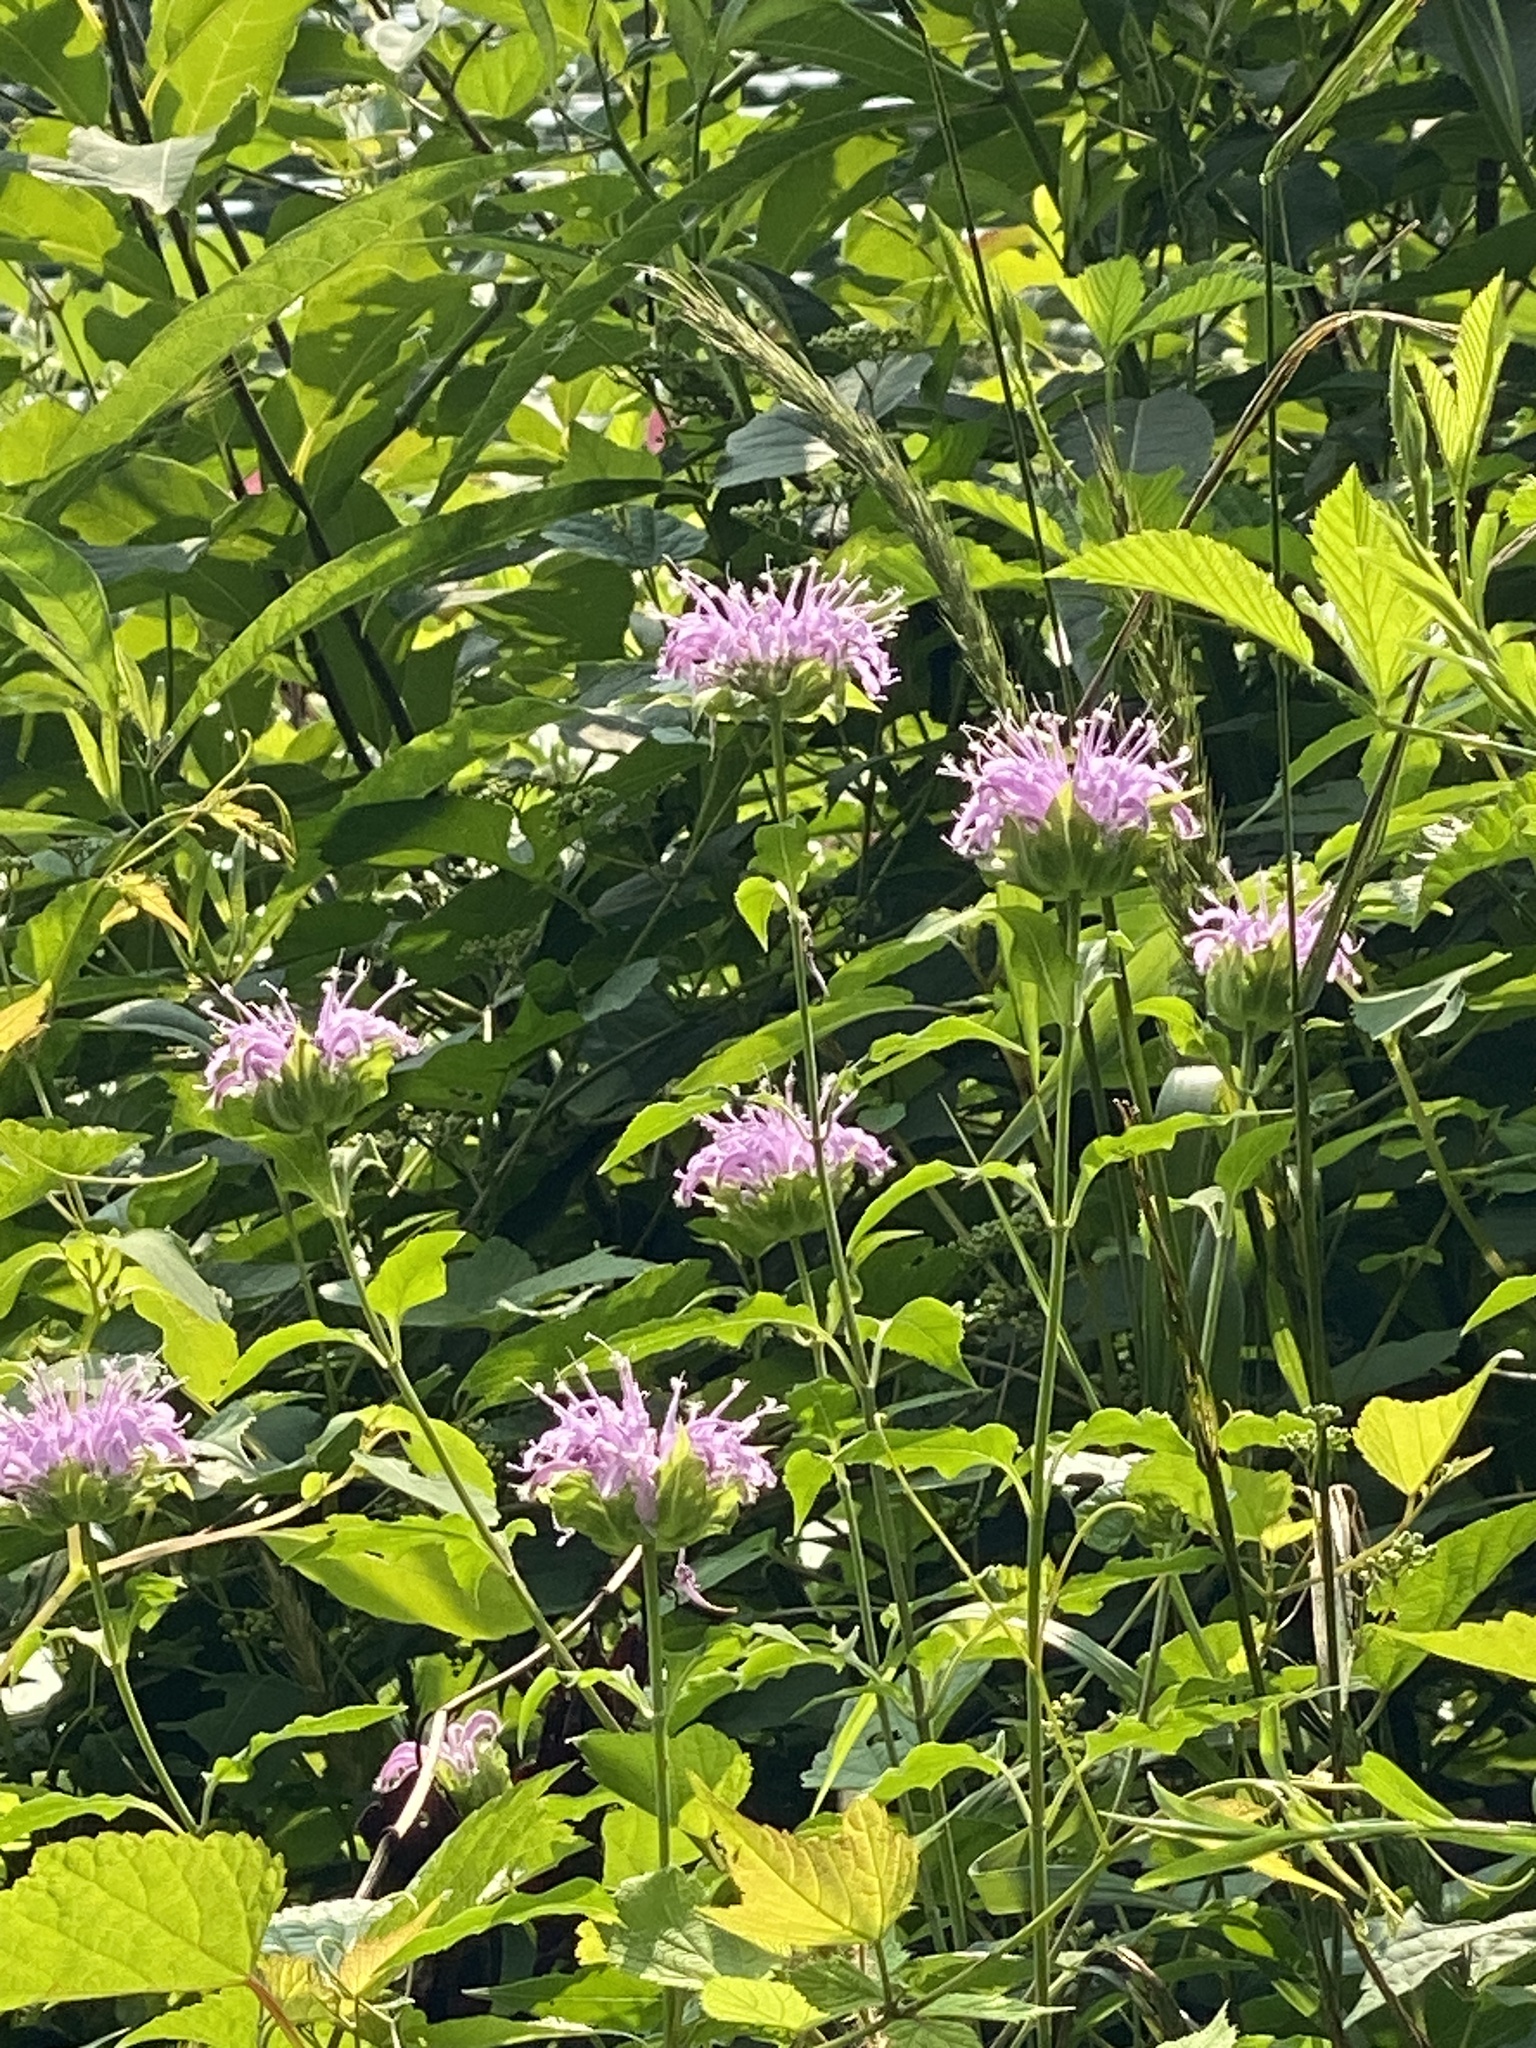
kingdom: Plantae
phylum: Tracheophyta
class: Magnoliopsida
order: Lamiales
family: Lamiaceae
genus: Monarda
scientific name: Monarda fistulosa
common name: Purple beebalm
